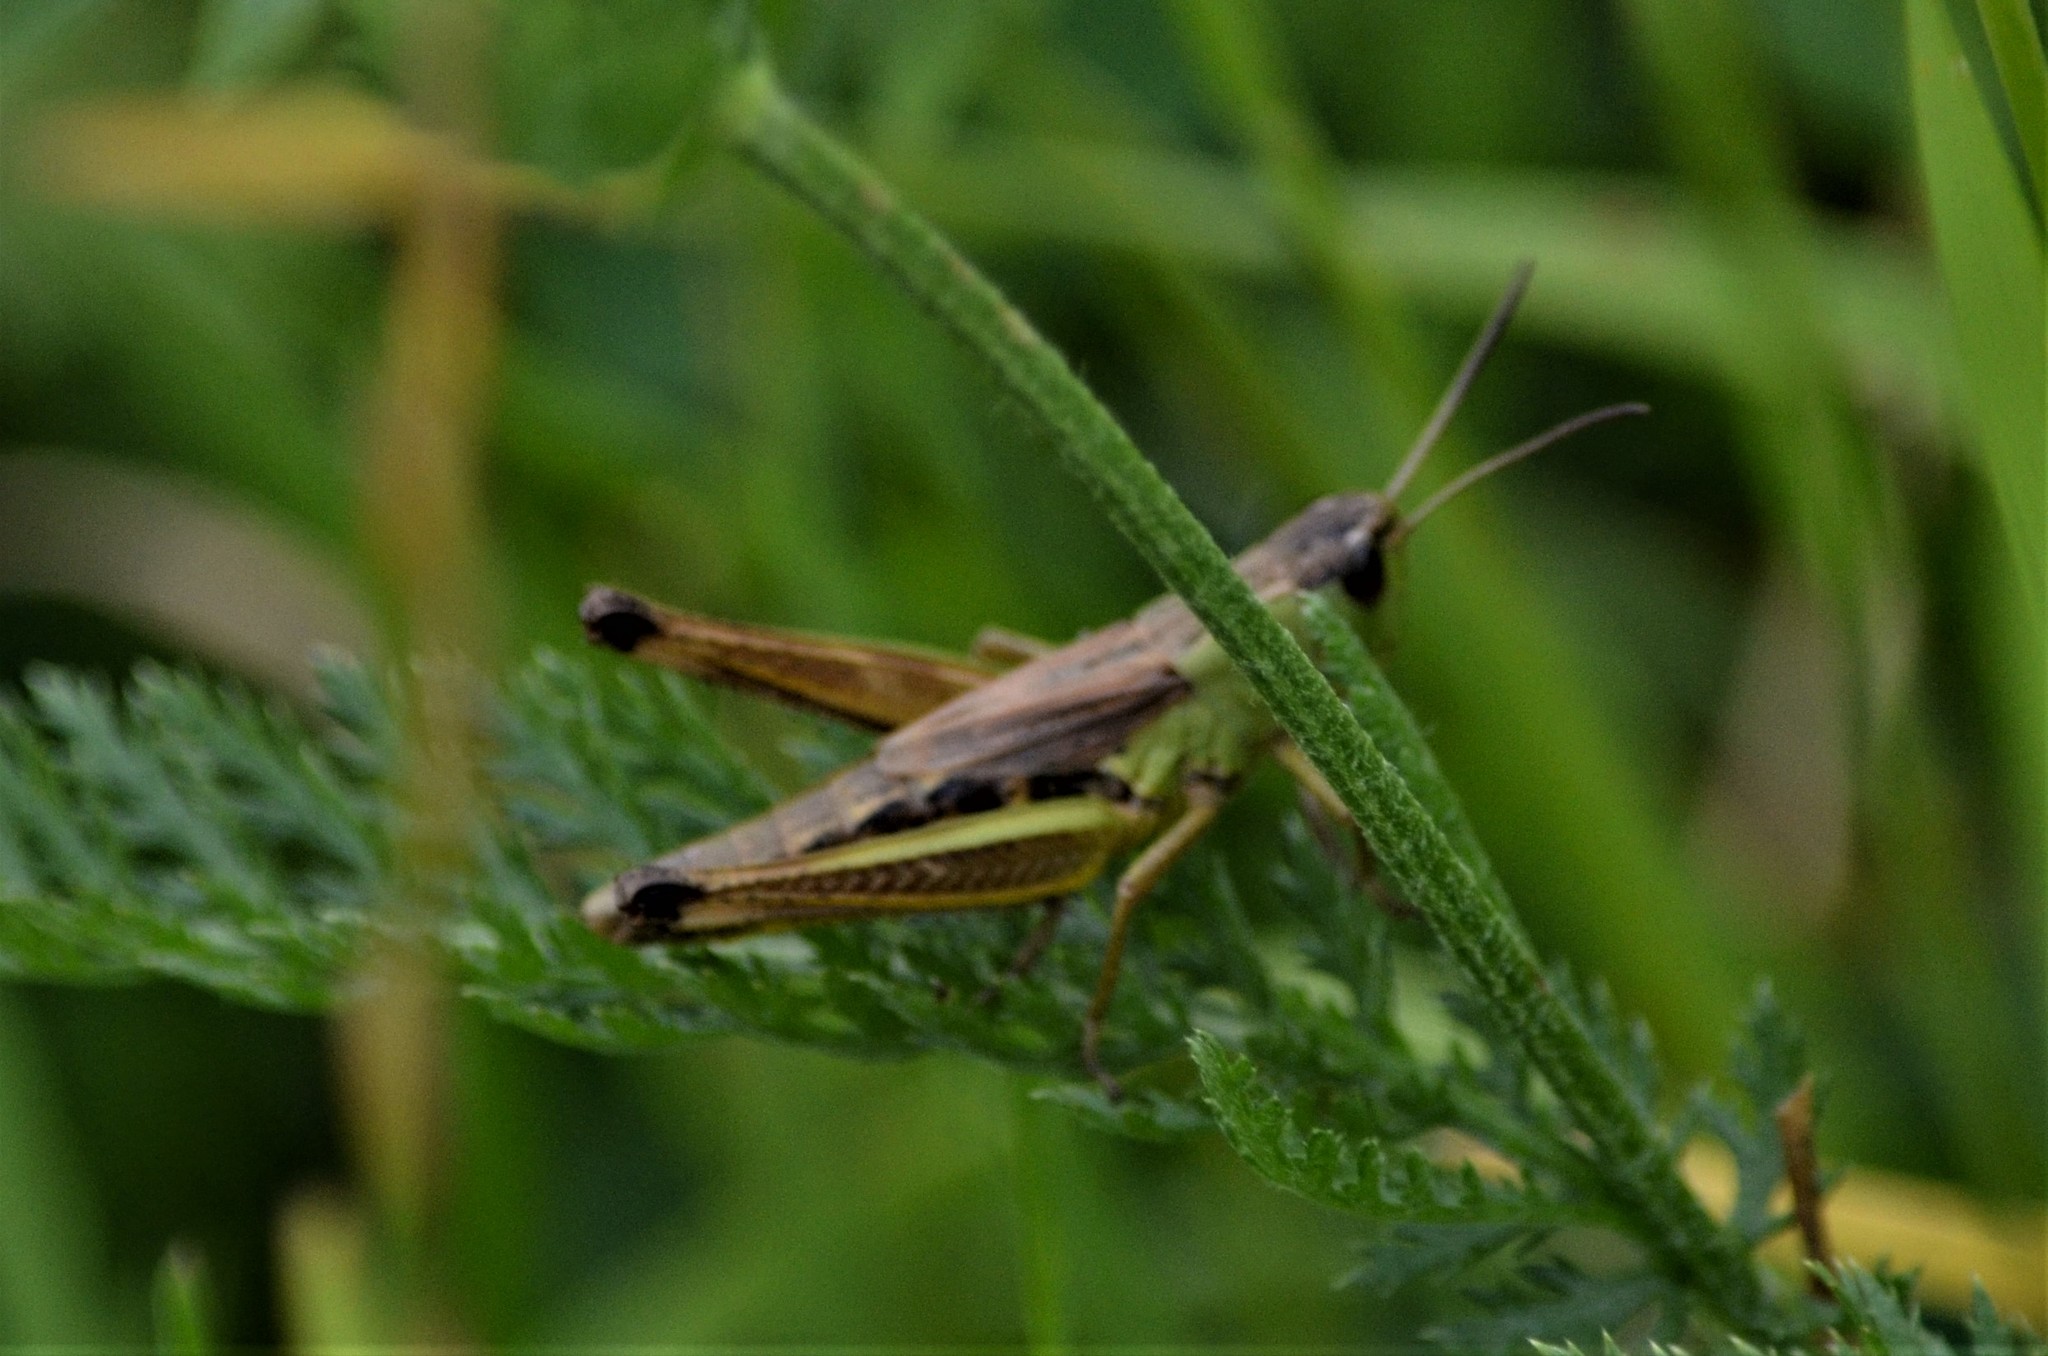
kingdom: Animalia
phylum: Arthropoda
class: Insecta
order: Orthoptera
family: Acrididae
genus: Pseudochorthippus
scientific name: Pseudochorthippus parallelus
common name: Meadow grasshopper
